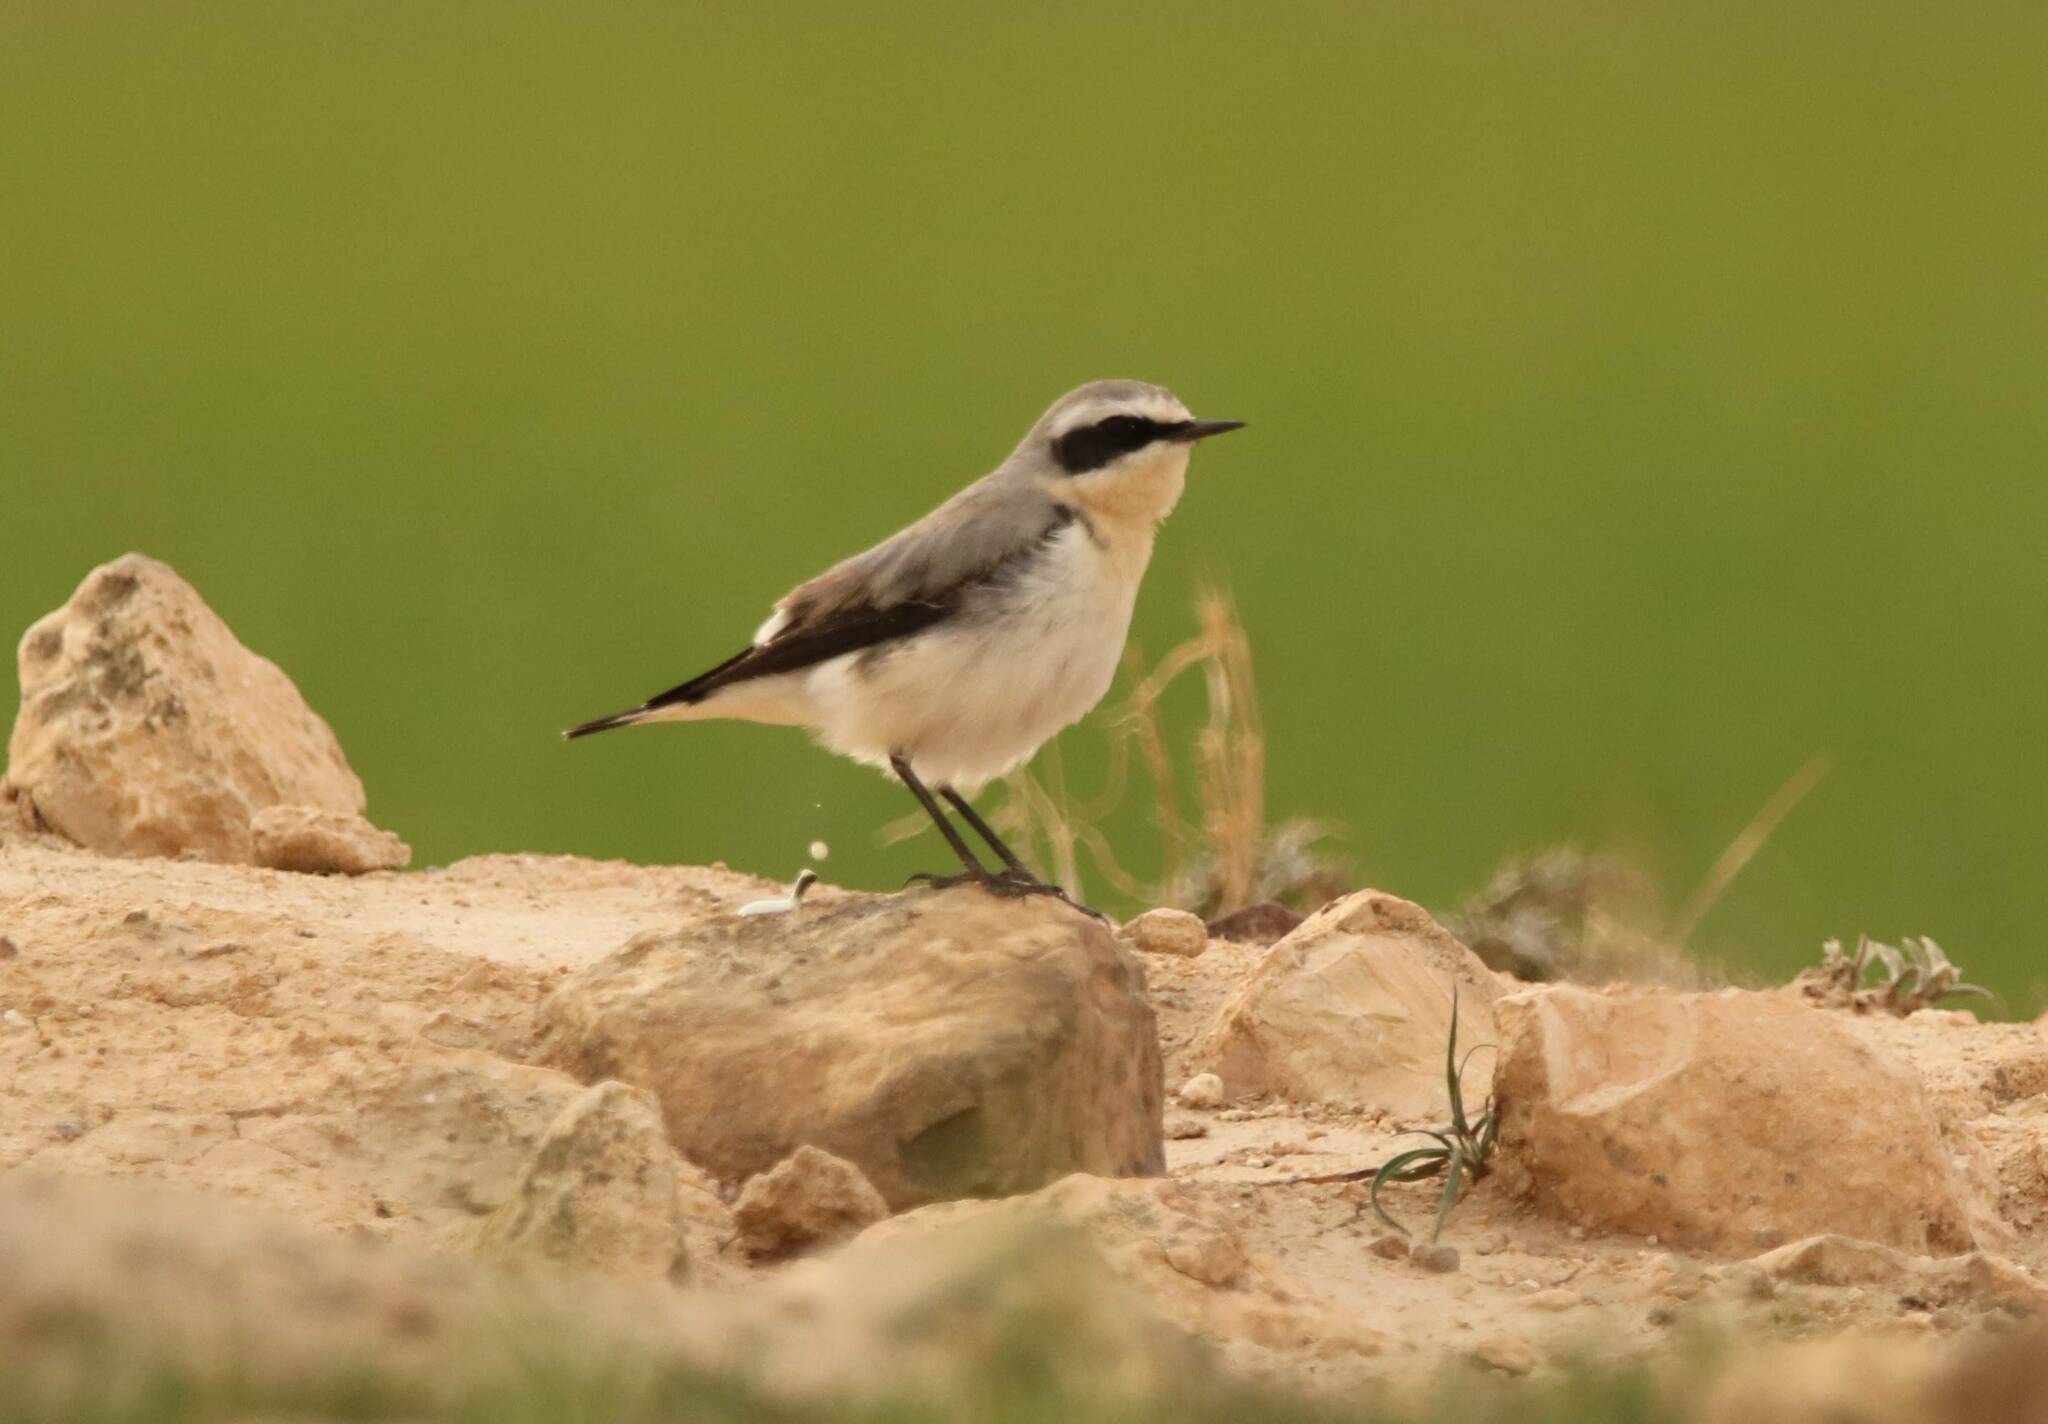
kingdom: Animalia
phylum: Chordata
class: Aves
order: Passeriformes
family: Muscicapidae
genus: Oenanthe
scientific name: Oenanthe oenanthe
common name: Northern wheatear
